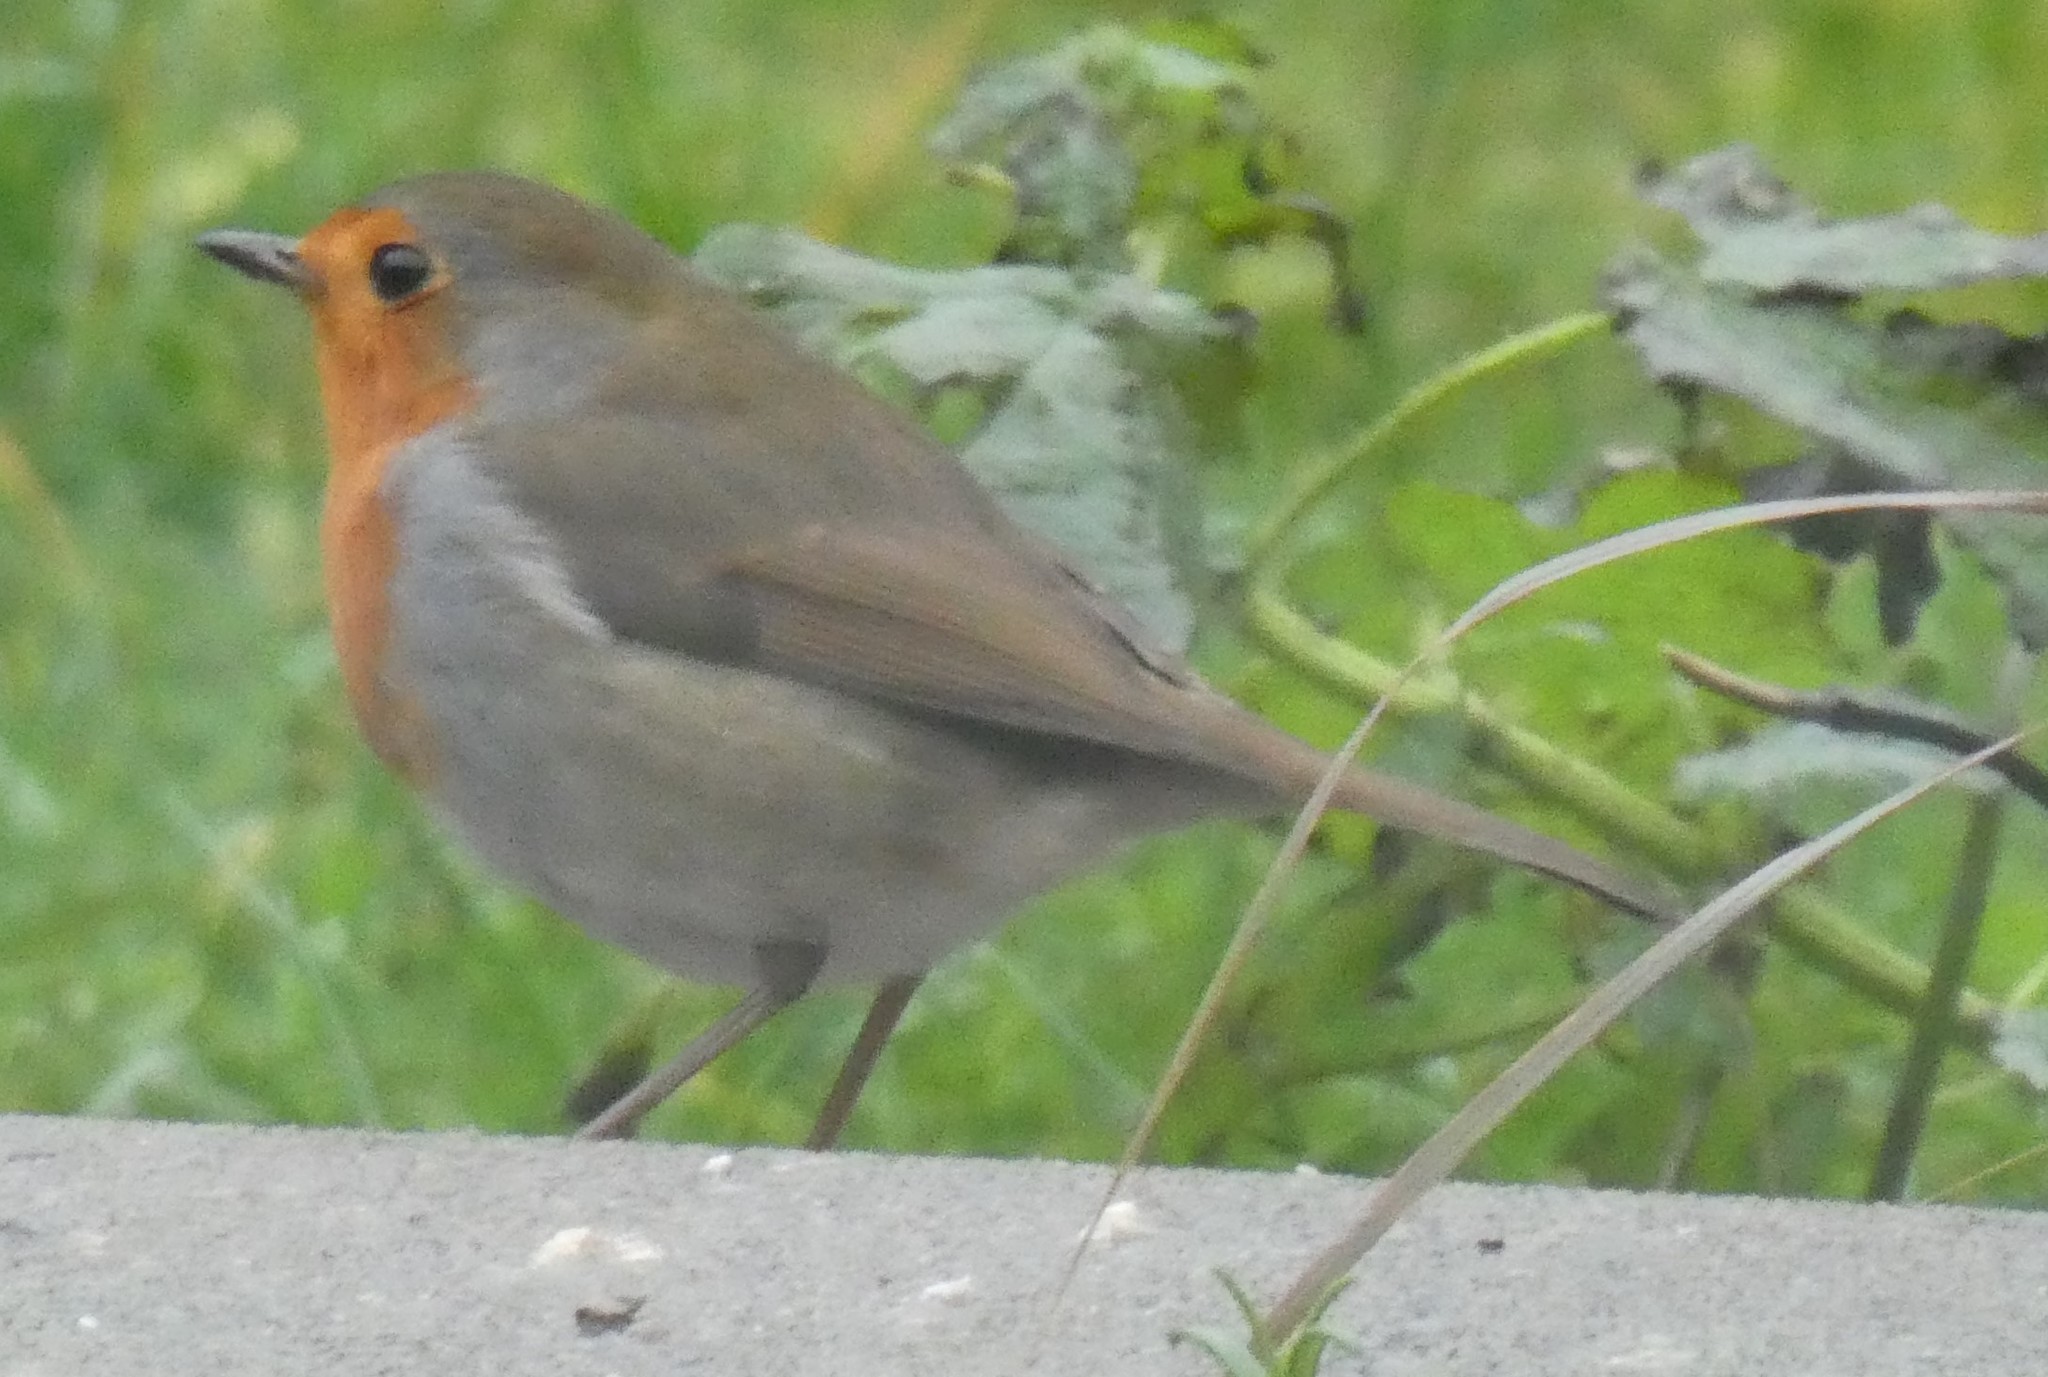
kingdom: Animalia
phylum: Chordata
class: Aves
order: Passeriformes
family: Muscicapidae
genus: Erithacus
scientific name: Erithacus rubecula
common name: European robin
